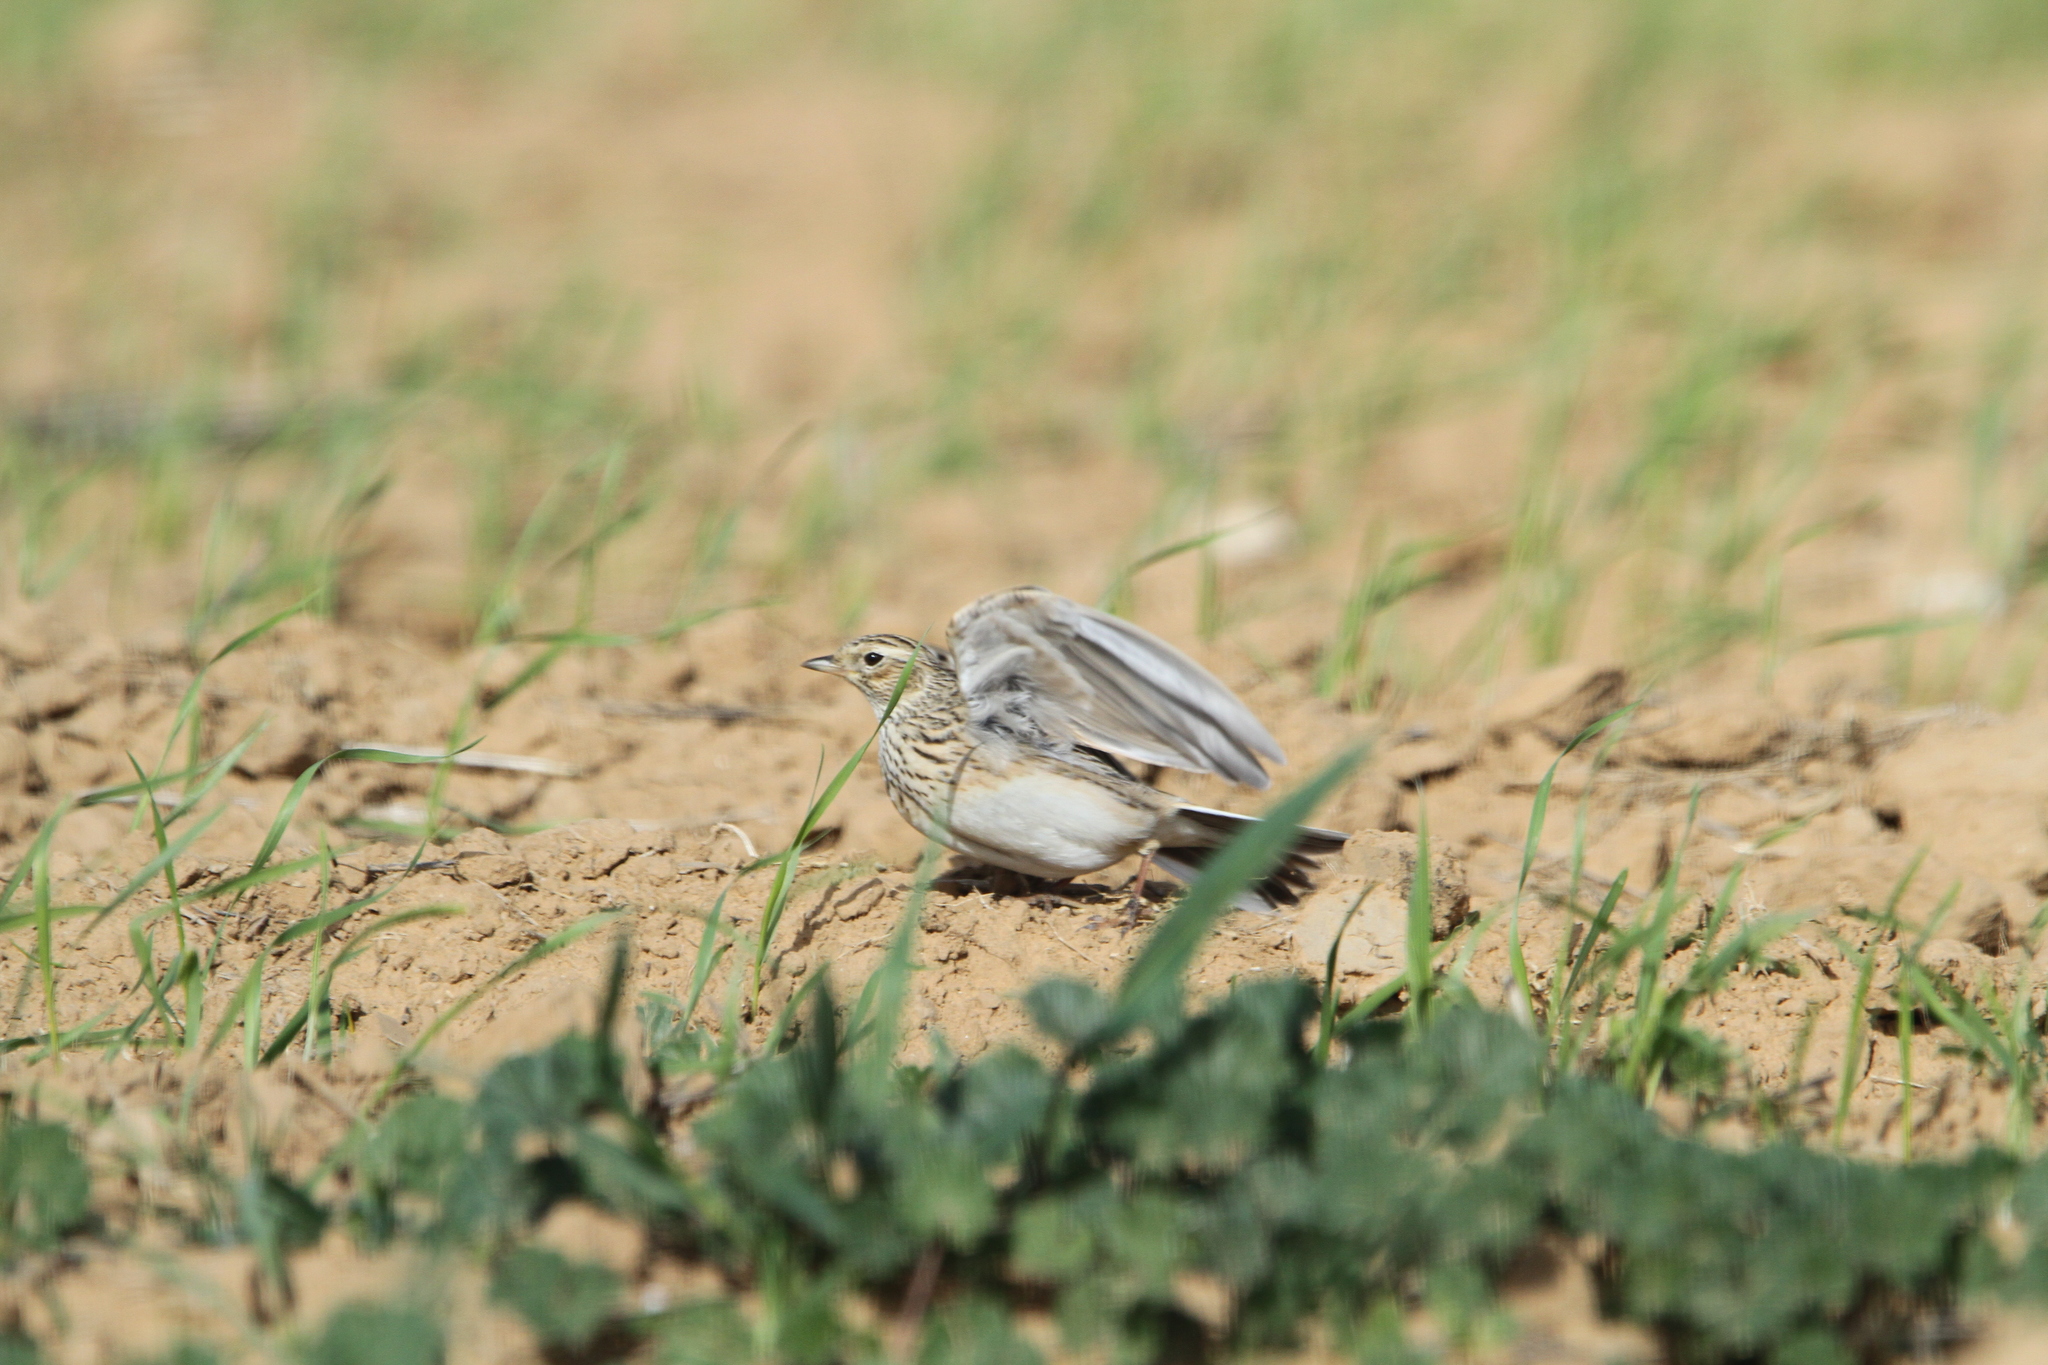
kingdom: Animalia
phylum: Chordata
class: Aves
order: Passeriformes
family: Alaudidae
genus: Alauda
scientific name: Alauda arvensis
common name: Eurasian skylark
